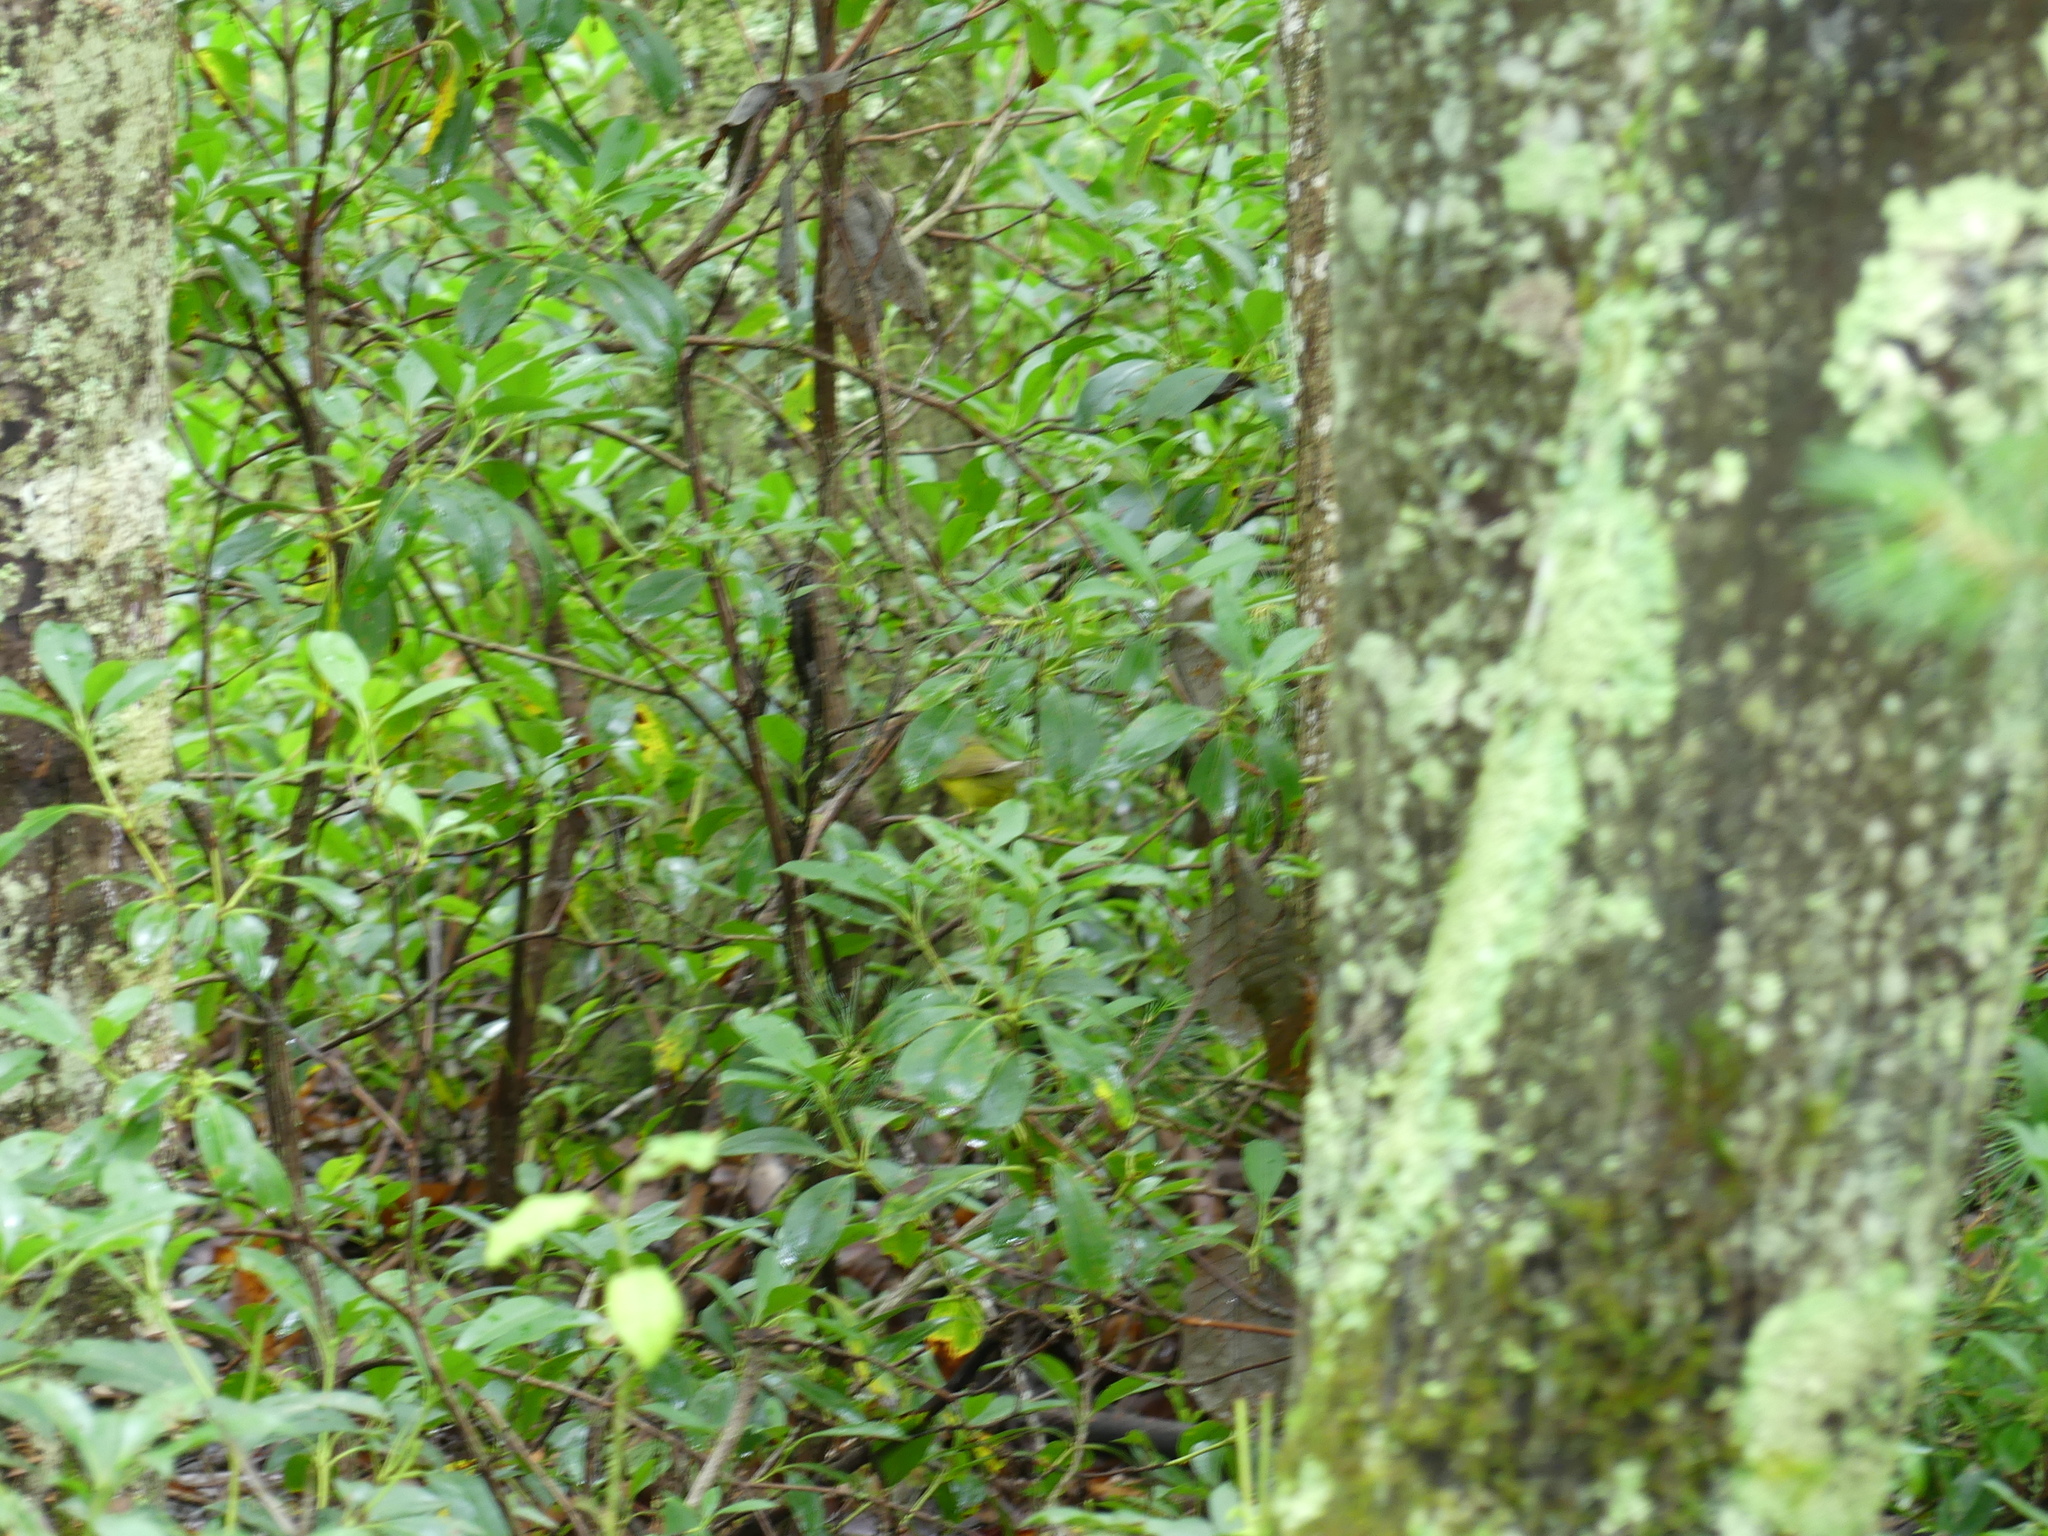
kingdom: Animalia
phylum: Chordata
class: Aves
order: Passeriformes
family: Parulidae
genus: Setophaga
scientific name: Setophaga citrina
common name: Hooded warbler
